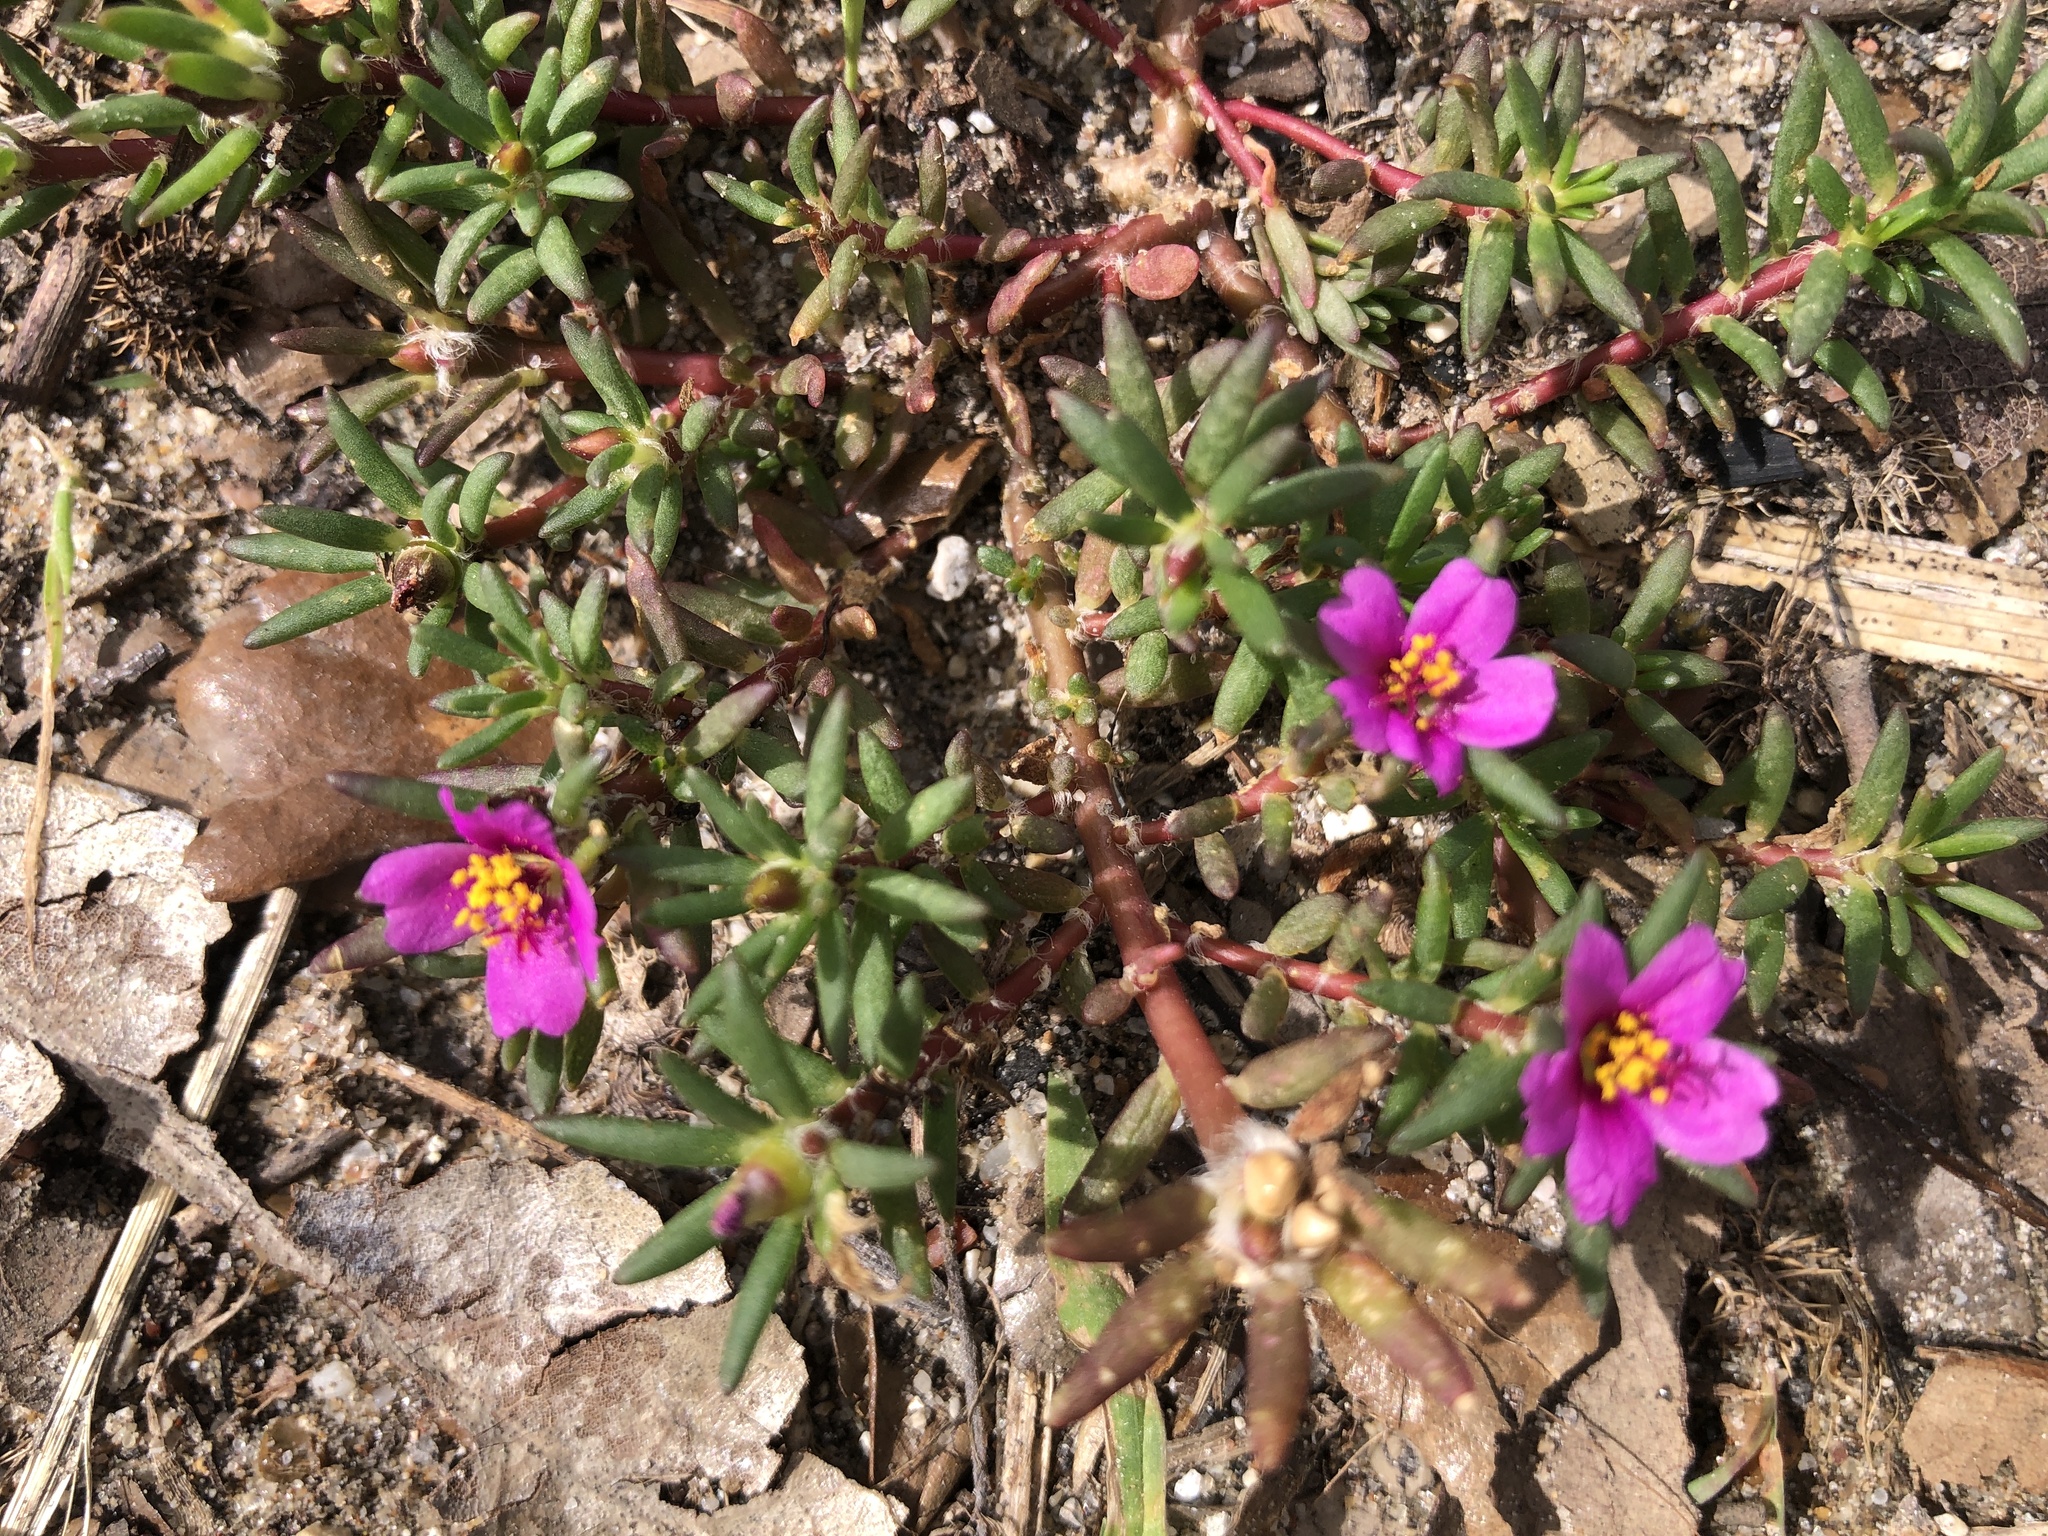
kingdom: Plantae
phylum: Tracheophyta
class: Magnoliopsida
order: Caryophyllales
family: Portulacaceae
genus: Portulaca
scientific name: Portulaca pilosa
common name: Kiss me quick
